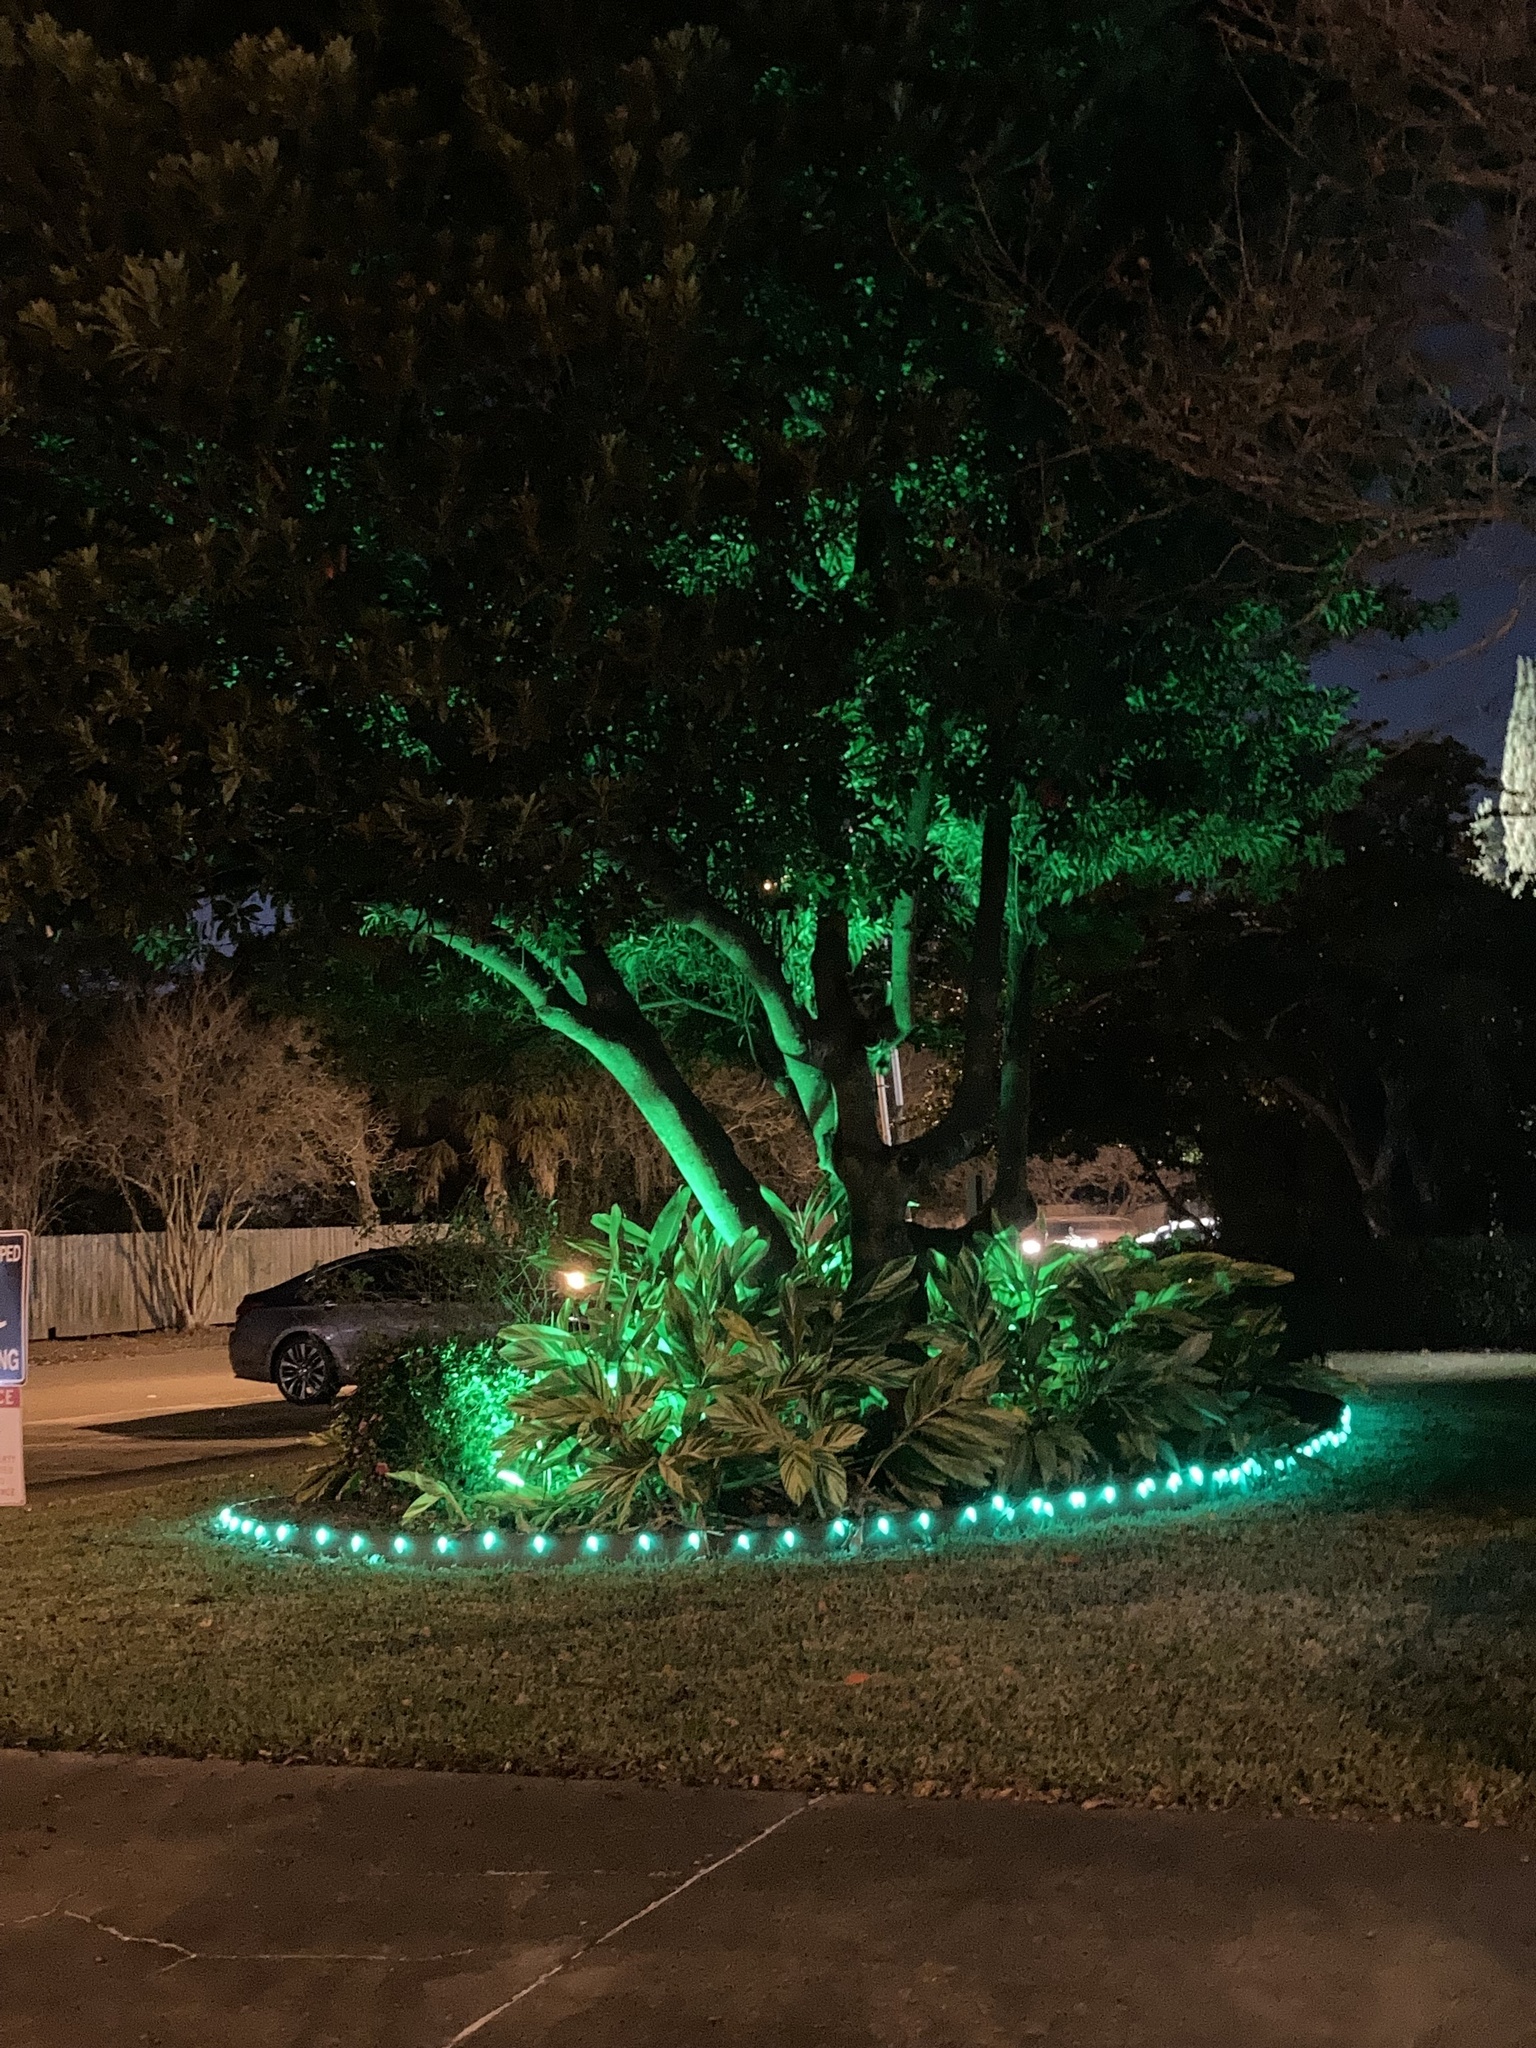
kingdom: Animalia
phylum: Chordata
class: Mammalia
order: Carnivora
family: Procyonidae
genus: Procyon
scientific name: Procyon lotor
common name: Raccoon
